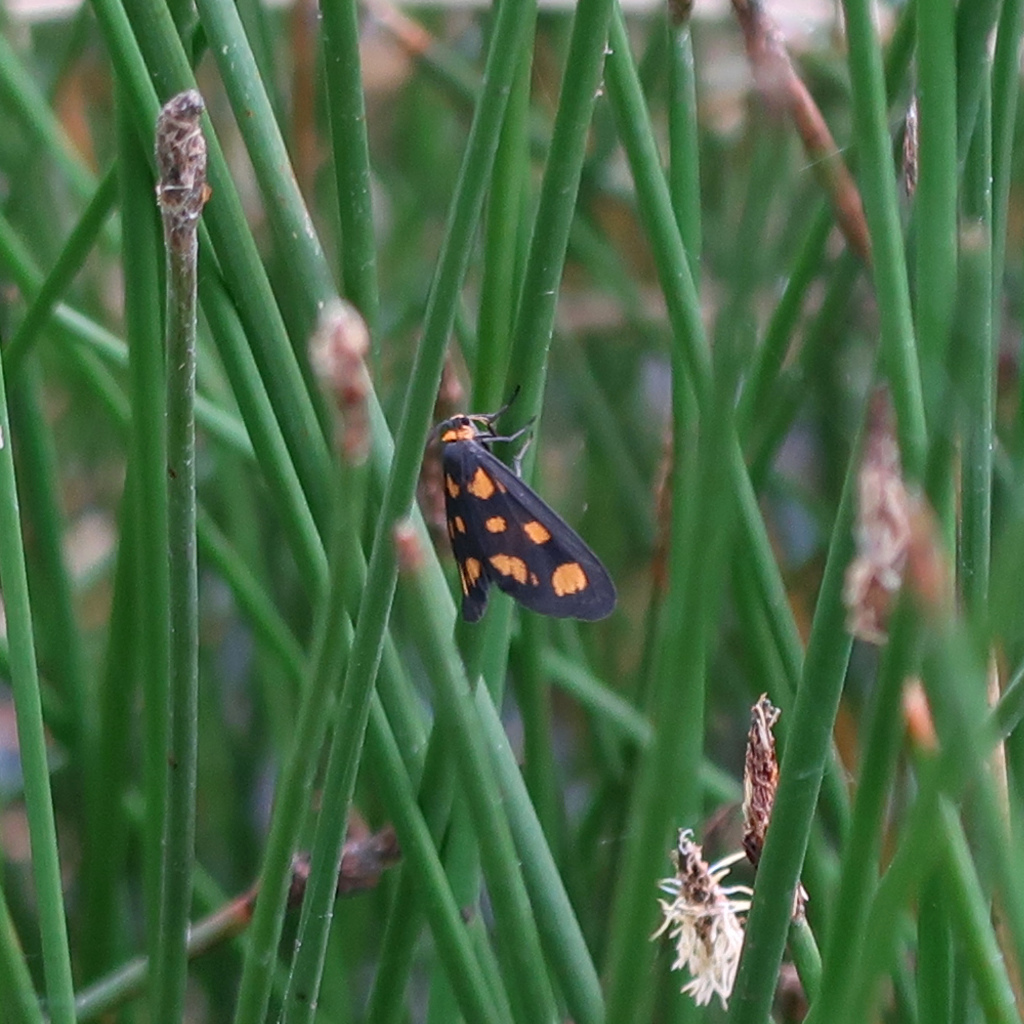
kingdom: Animalia
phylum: Arthropoda
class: Insecta
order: Lepidoptera
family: Erebidae
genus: Asura
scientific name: Asura cervicalis
